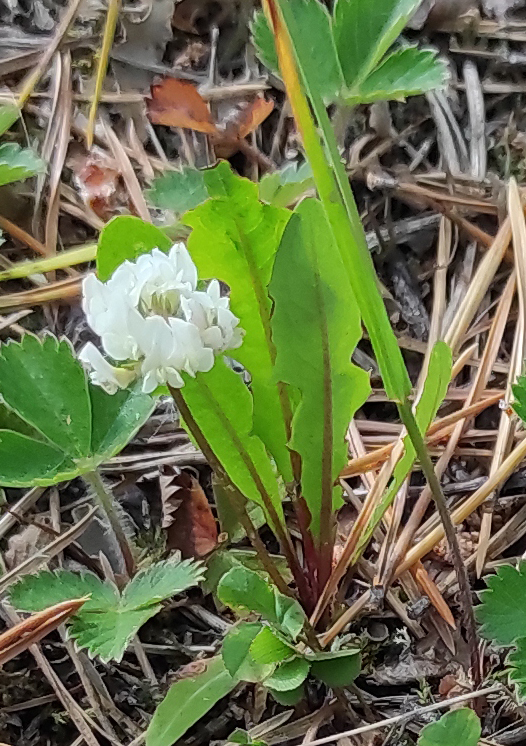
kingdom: Plantae
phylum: Tracheophyta
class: Magnoliopsida
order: Fabales
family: Fabaceae
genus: Trifolium
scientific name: Trifolium repens
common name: White clover
